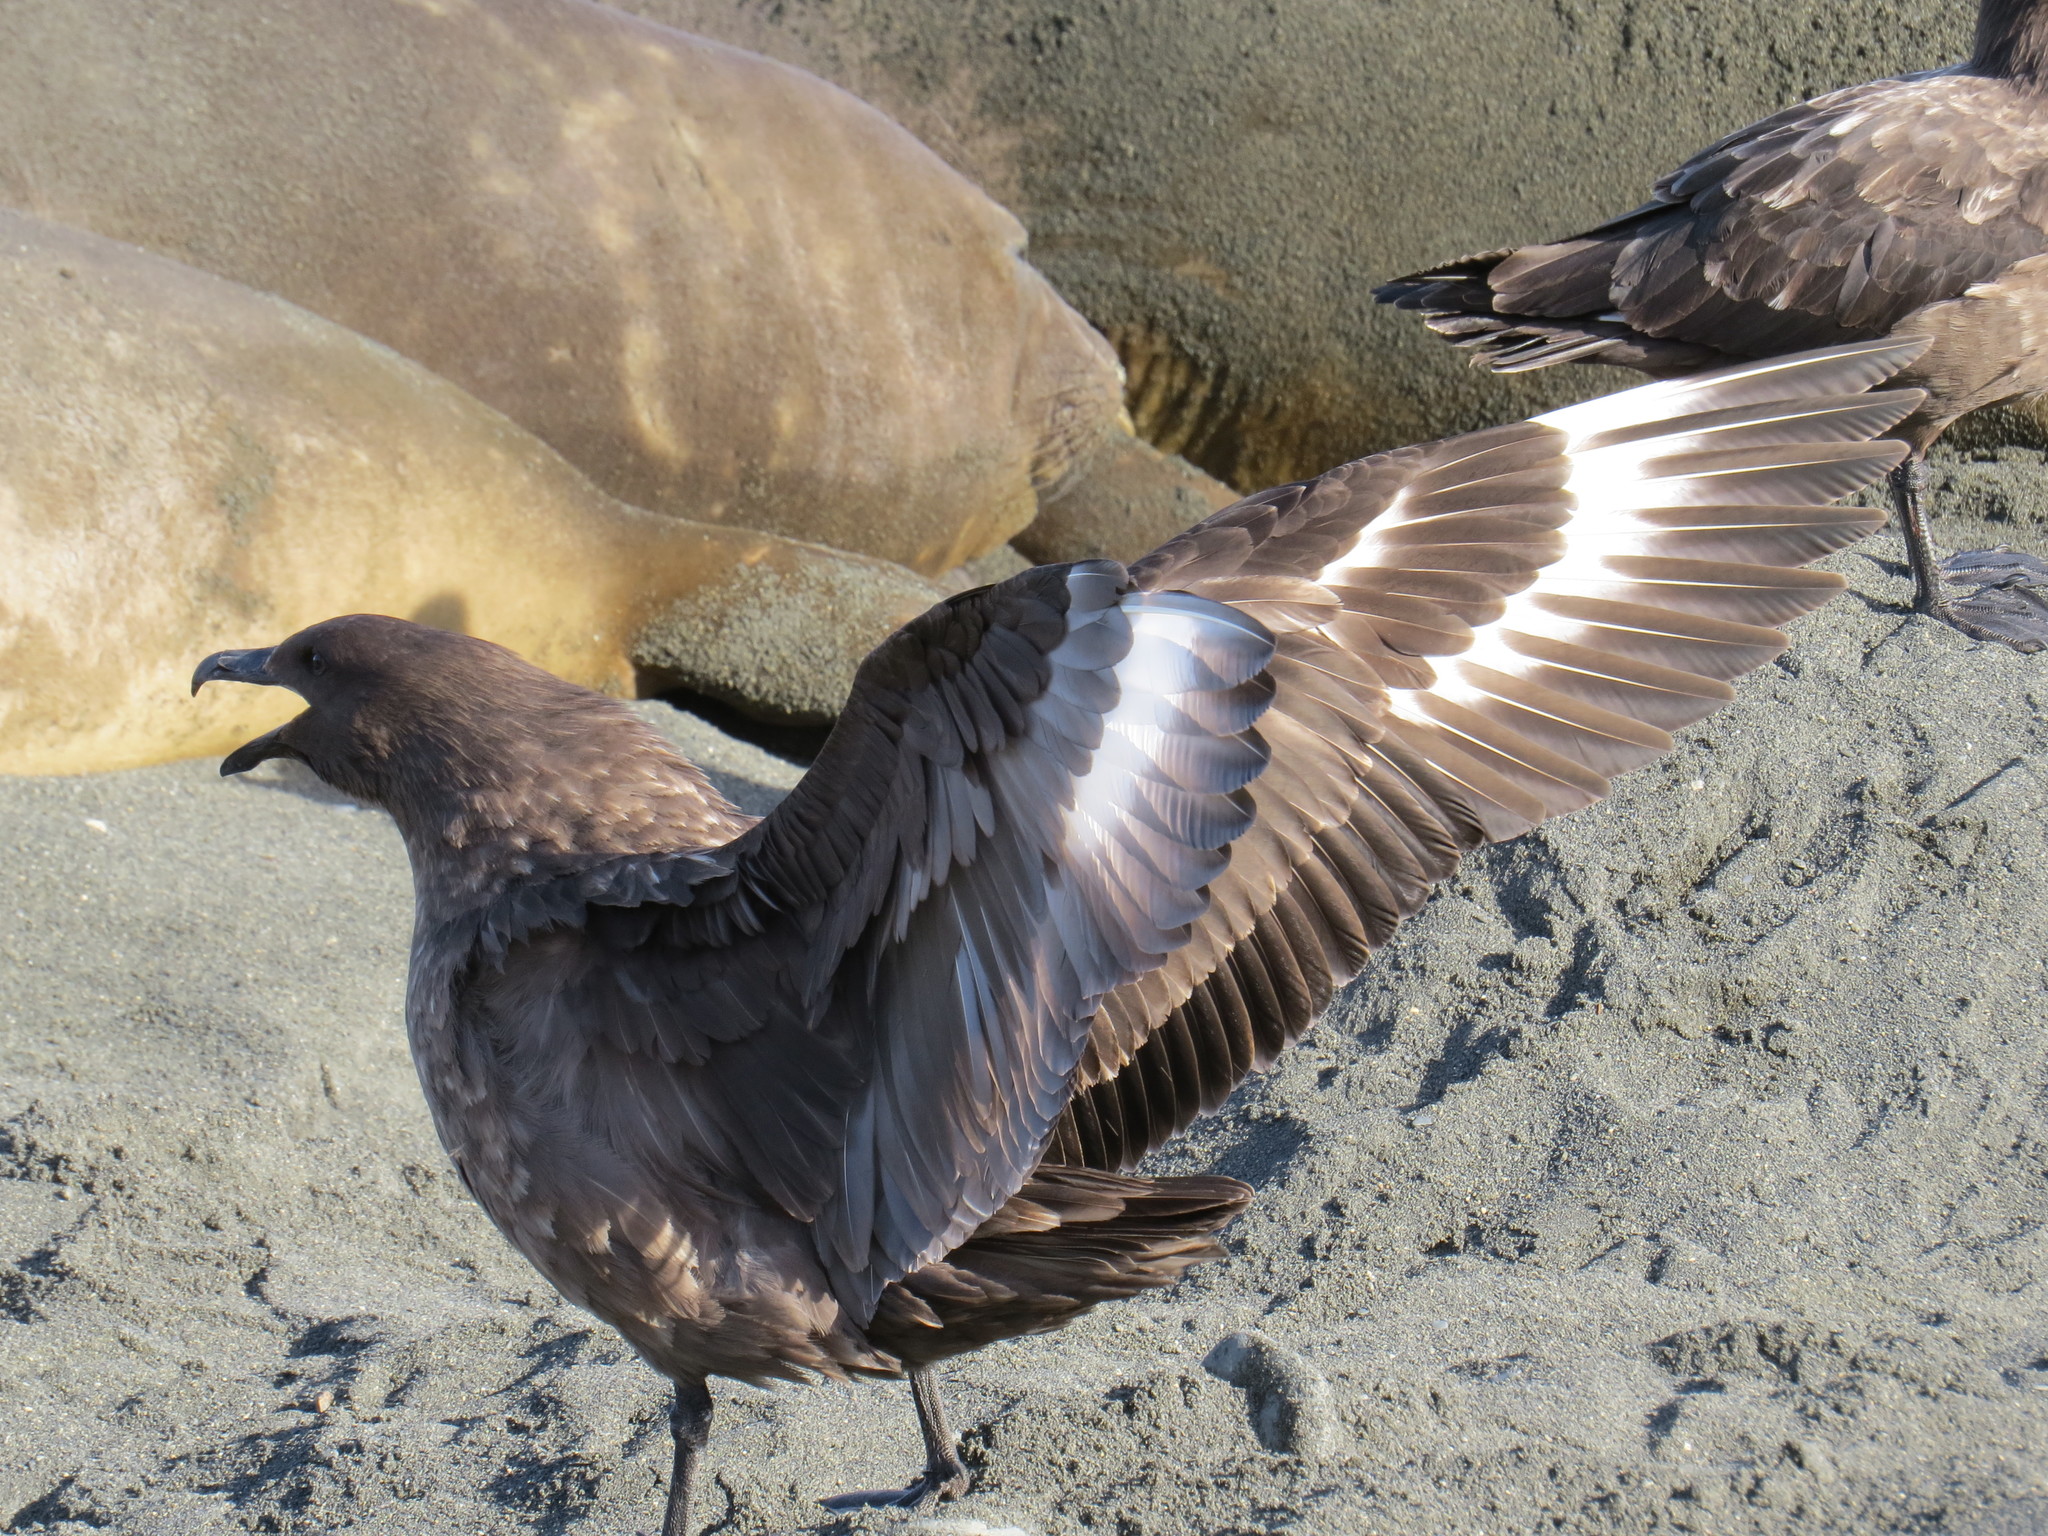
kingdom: Animalia
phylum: Chordata
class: Aves
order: Charadriiformes
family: Stercorariidae
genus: Stercorarius
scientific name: Stercorarius antarcticus
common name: Brown skua
